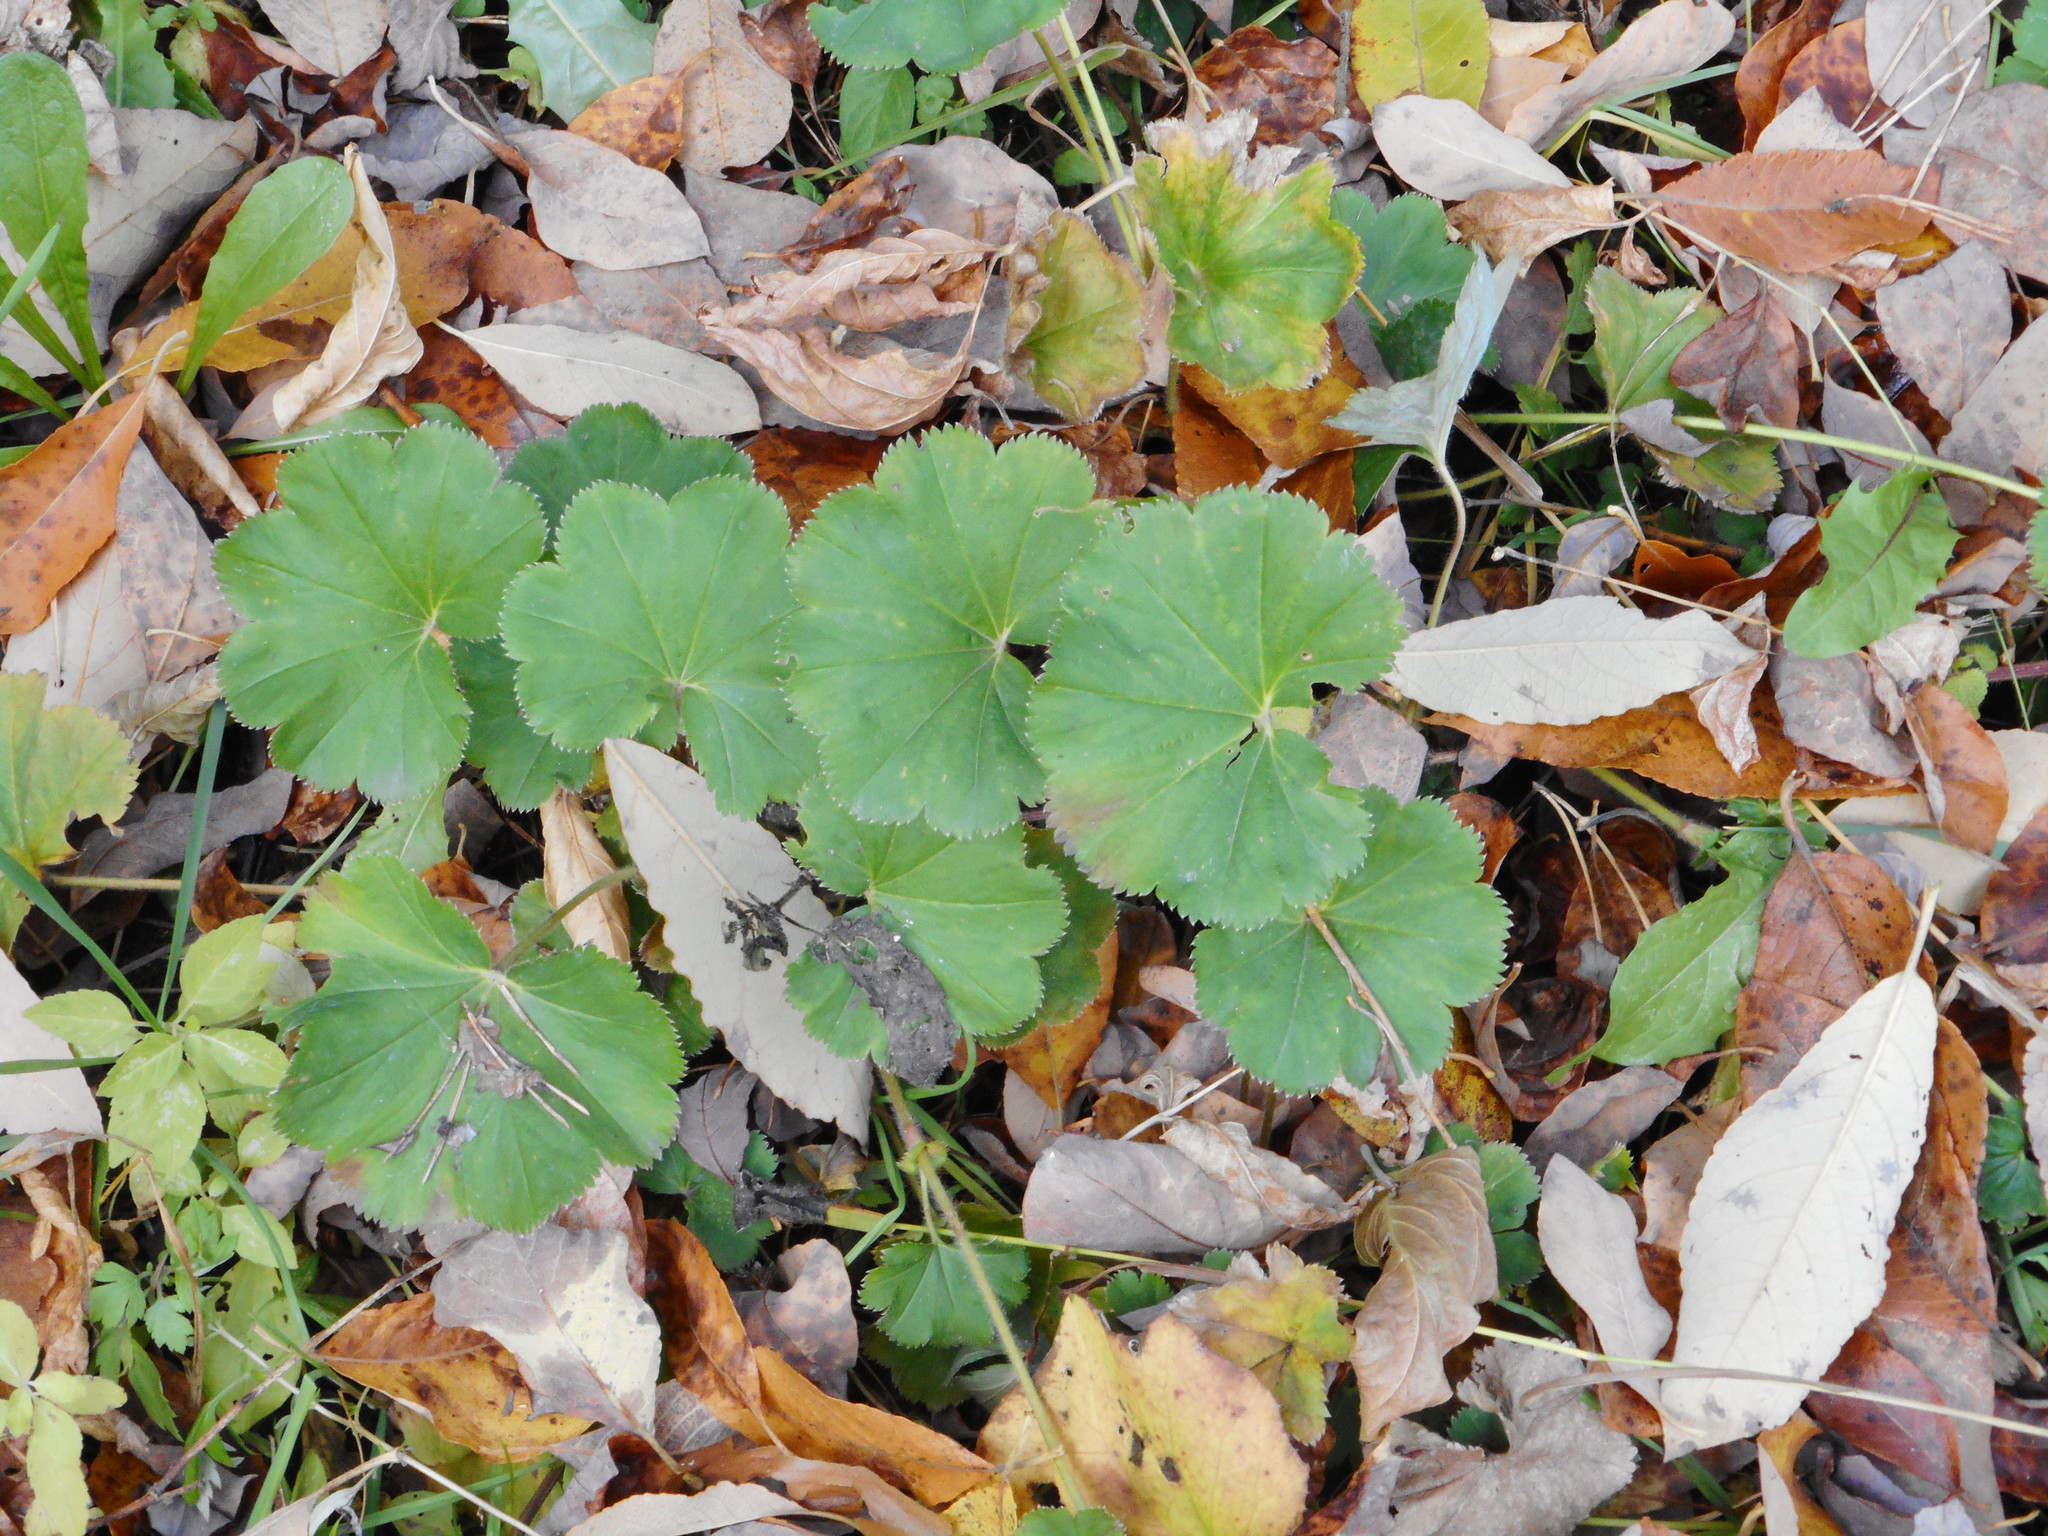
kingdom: Plantae
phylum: Tracheophyta
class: Magnoliopsida
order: Rosales
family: Rosaceae
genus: Alchemilla
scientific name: Alchemilla
